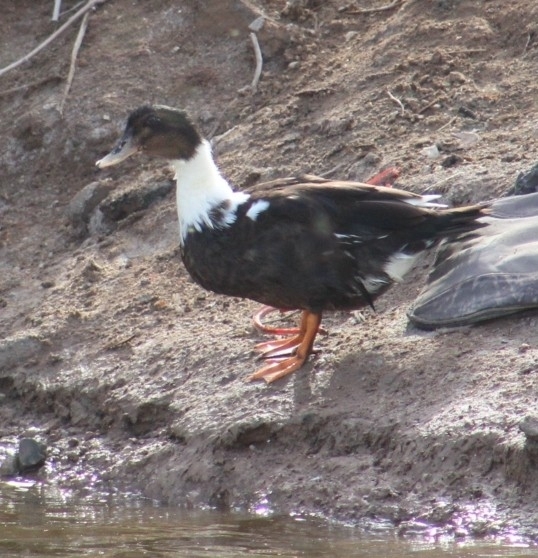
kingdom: Animalia
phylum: Chordata
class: Aves
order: Anseriformes
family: Anatidae
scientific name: Anatidae
